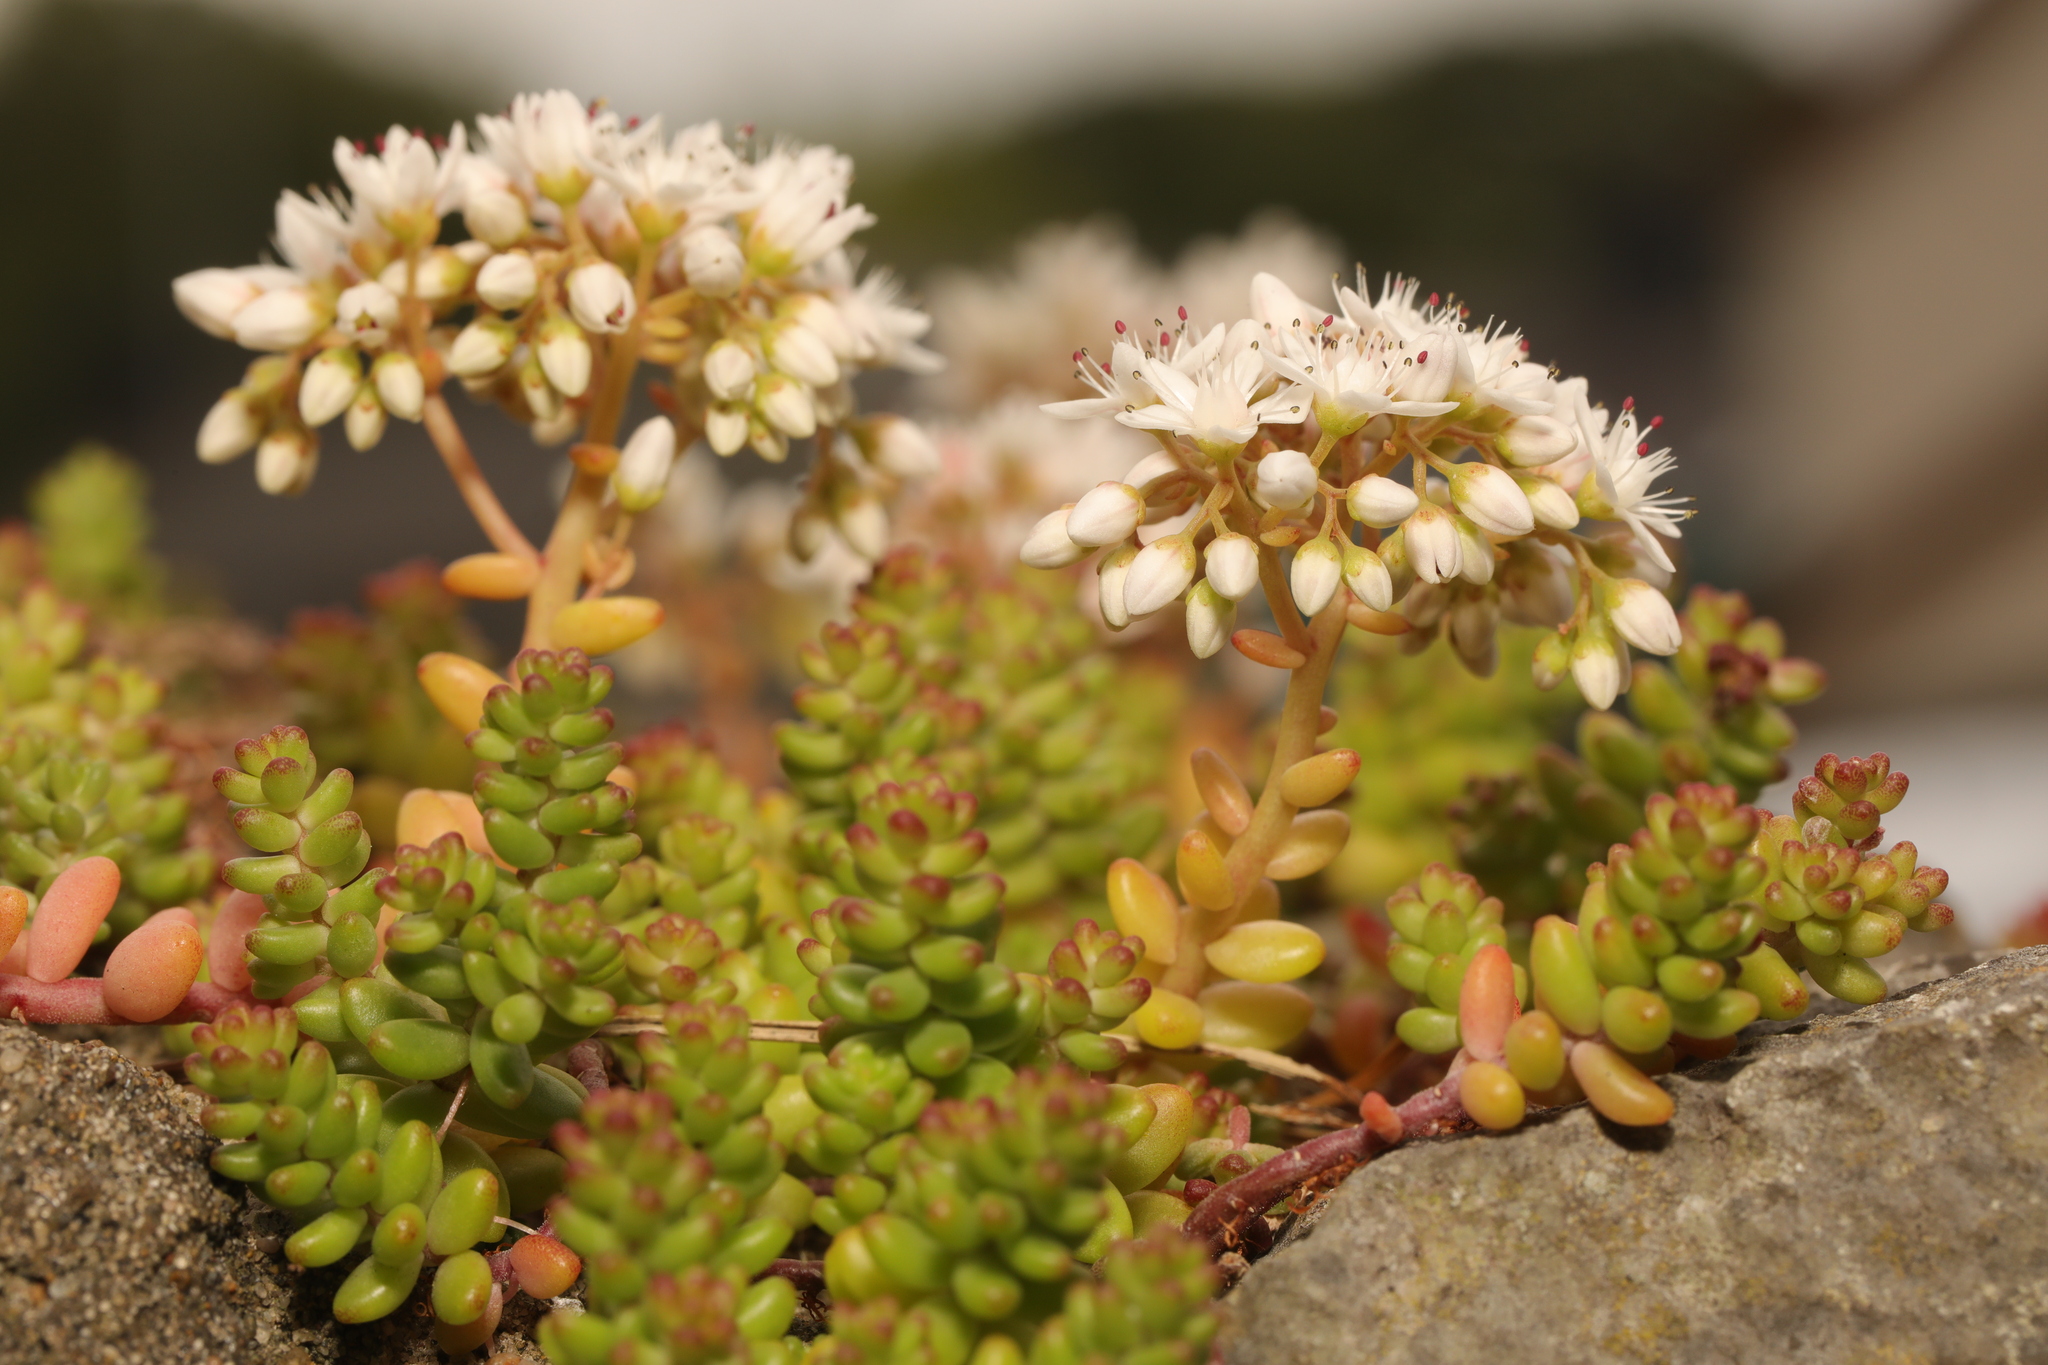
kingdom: Plantae
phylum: Tracheophyta
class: Magnoliopsida
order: Saxifragales
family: Crassulaceae
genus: Sedum
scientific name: Sedum album
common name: White stonecrop
